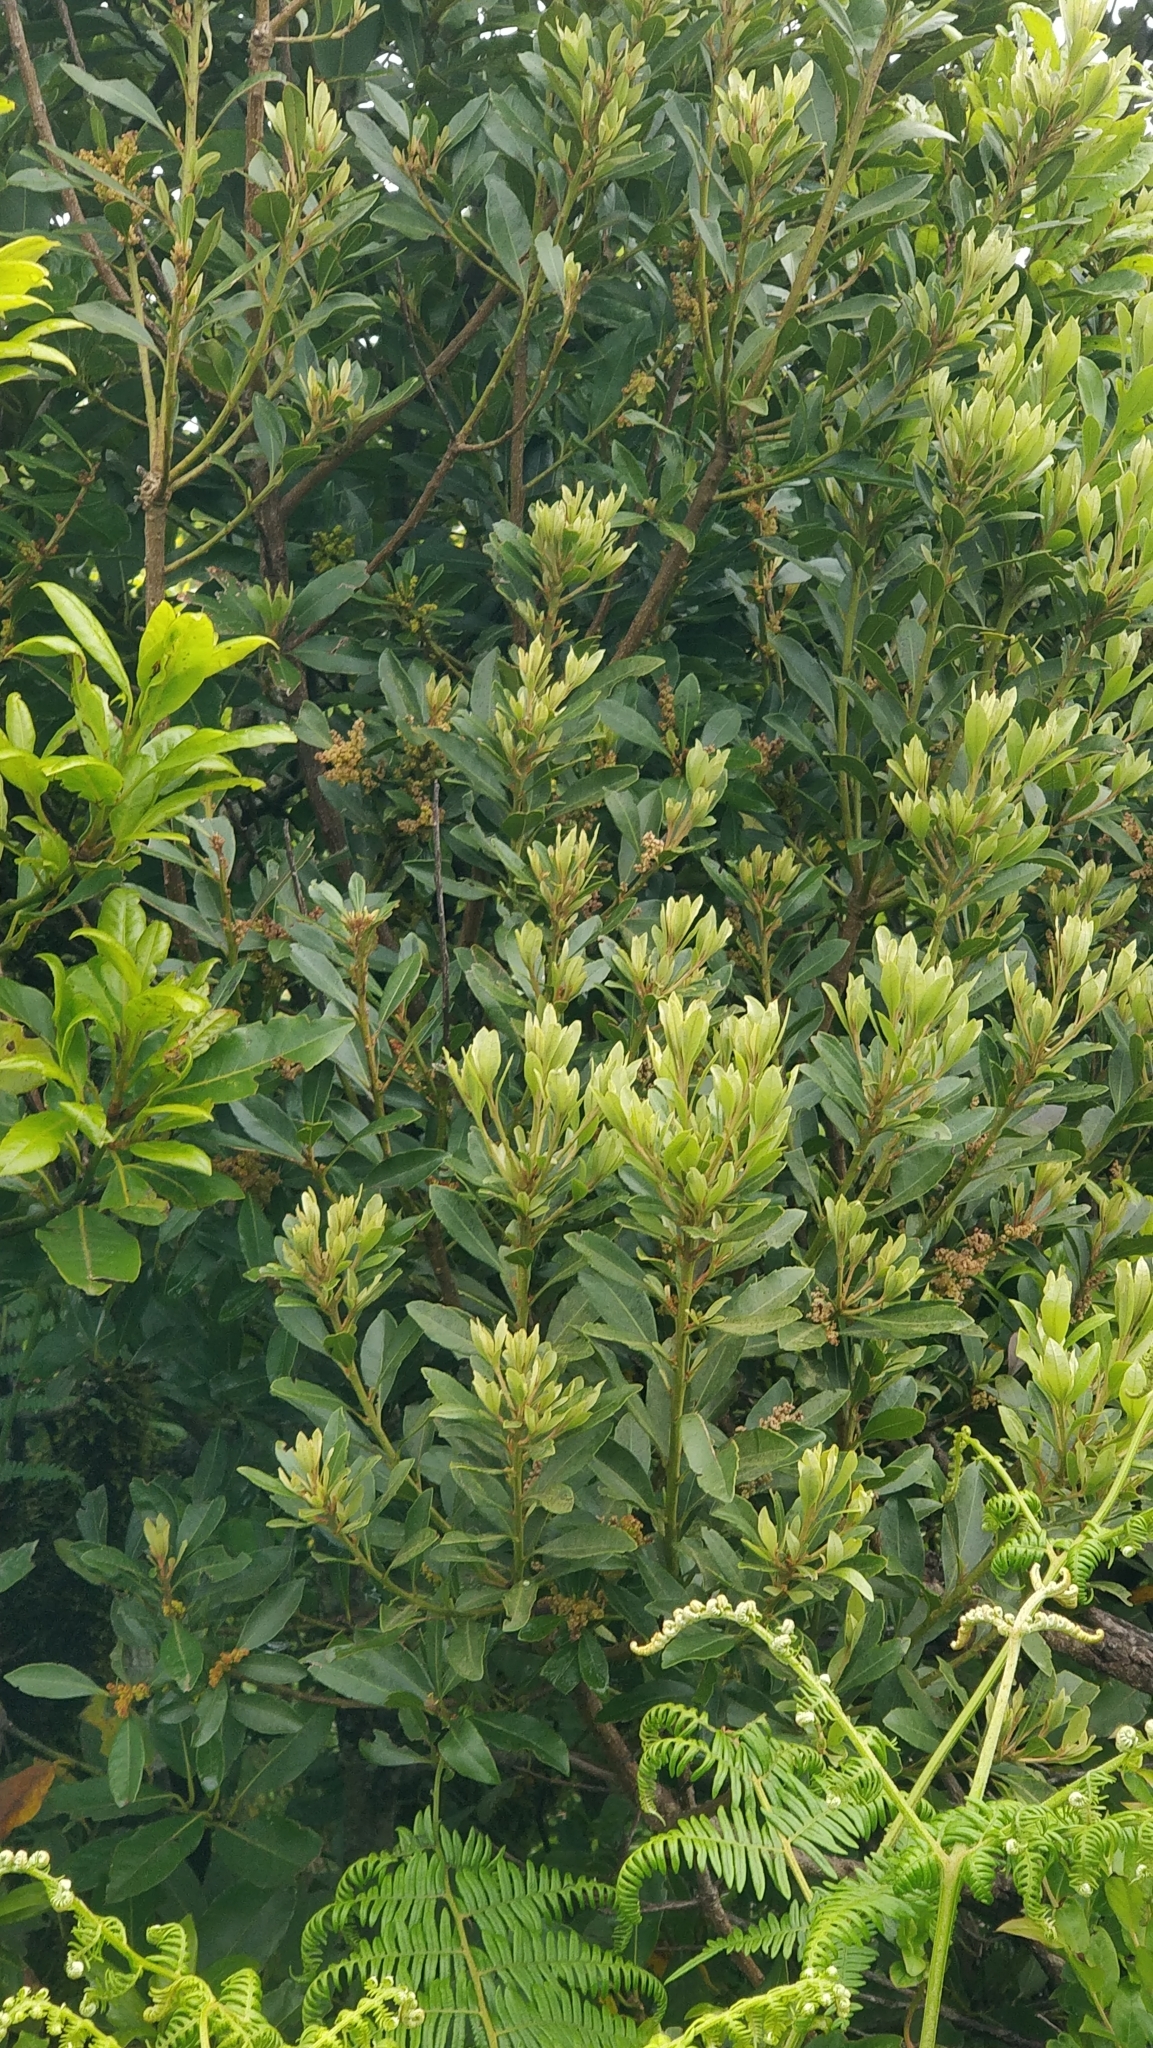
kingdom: Plantae
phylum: Tracheophyta
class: Magnoliopsida
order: Fagales
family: Myricaceae
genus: Morella
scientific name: Morella faya
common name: Firetree
